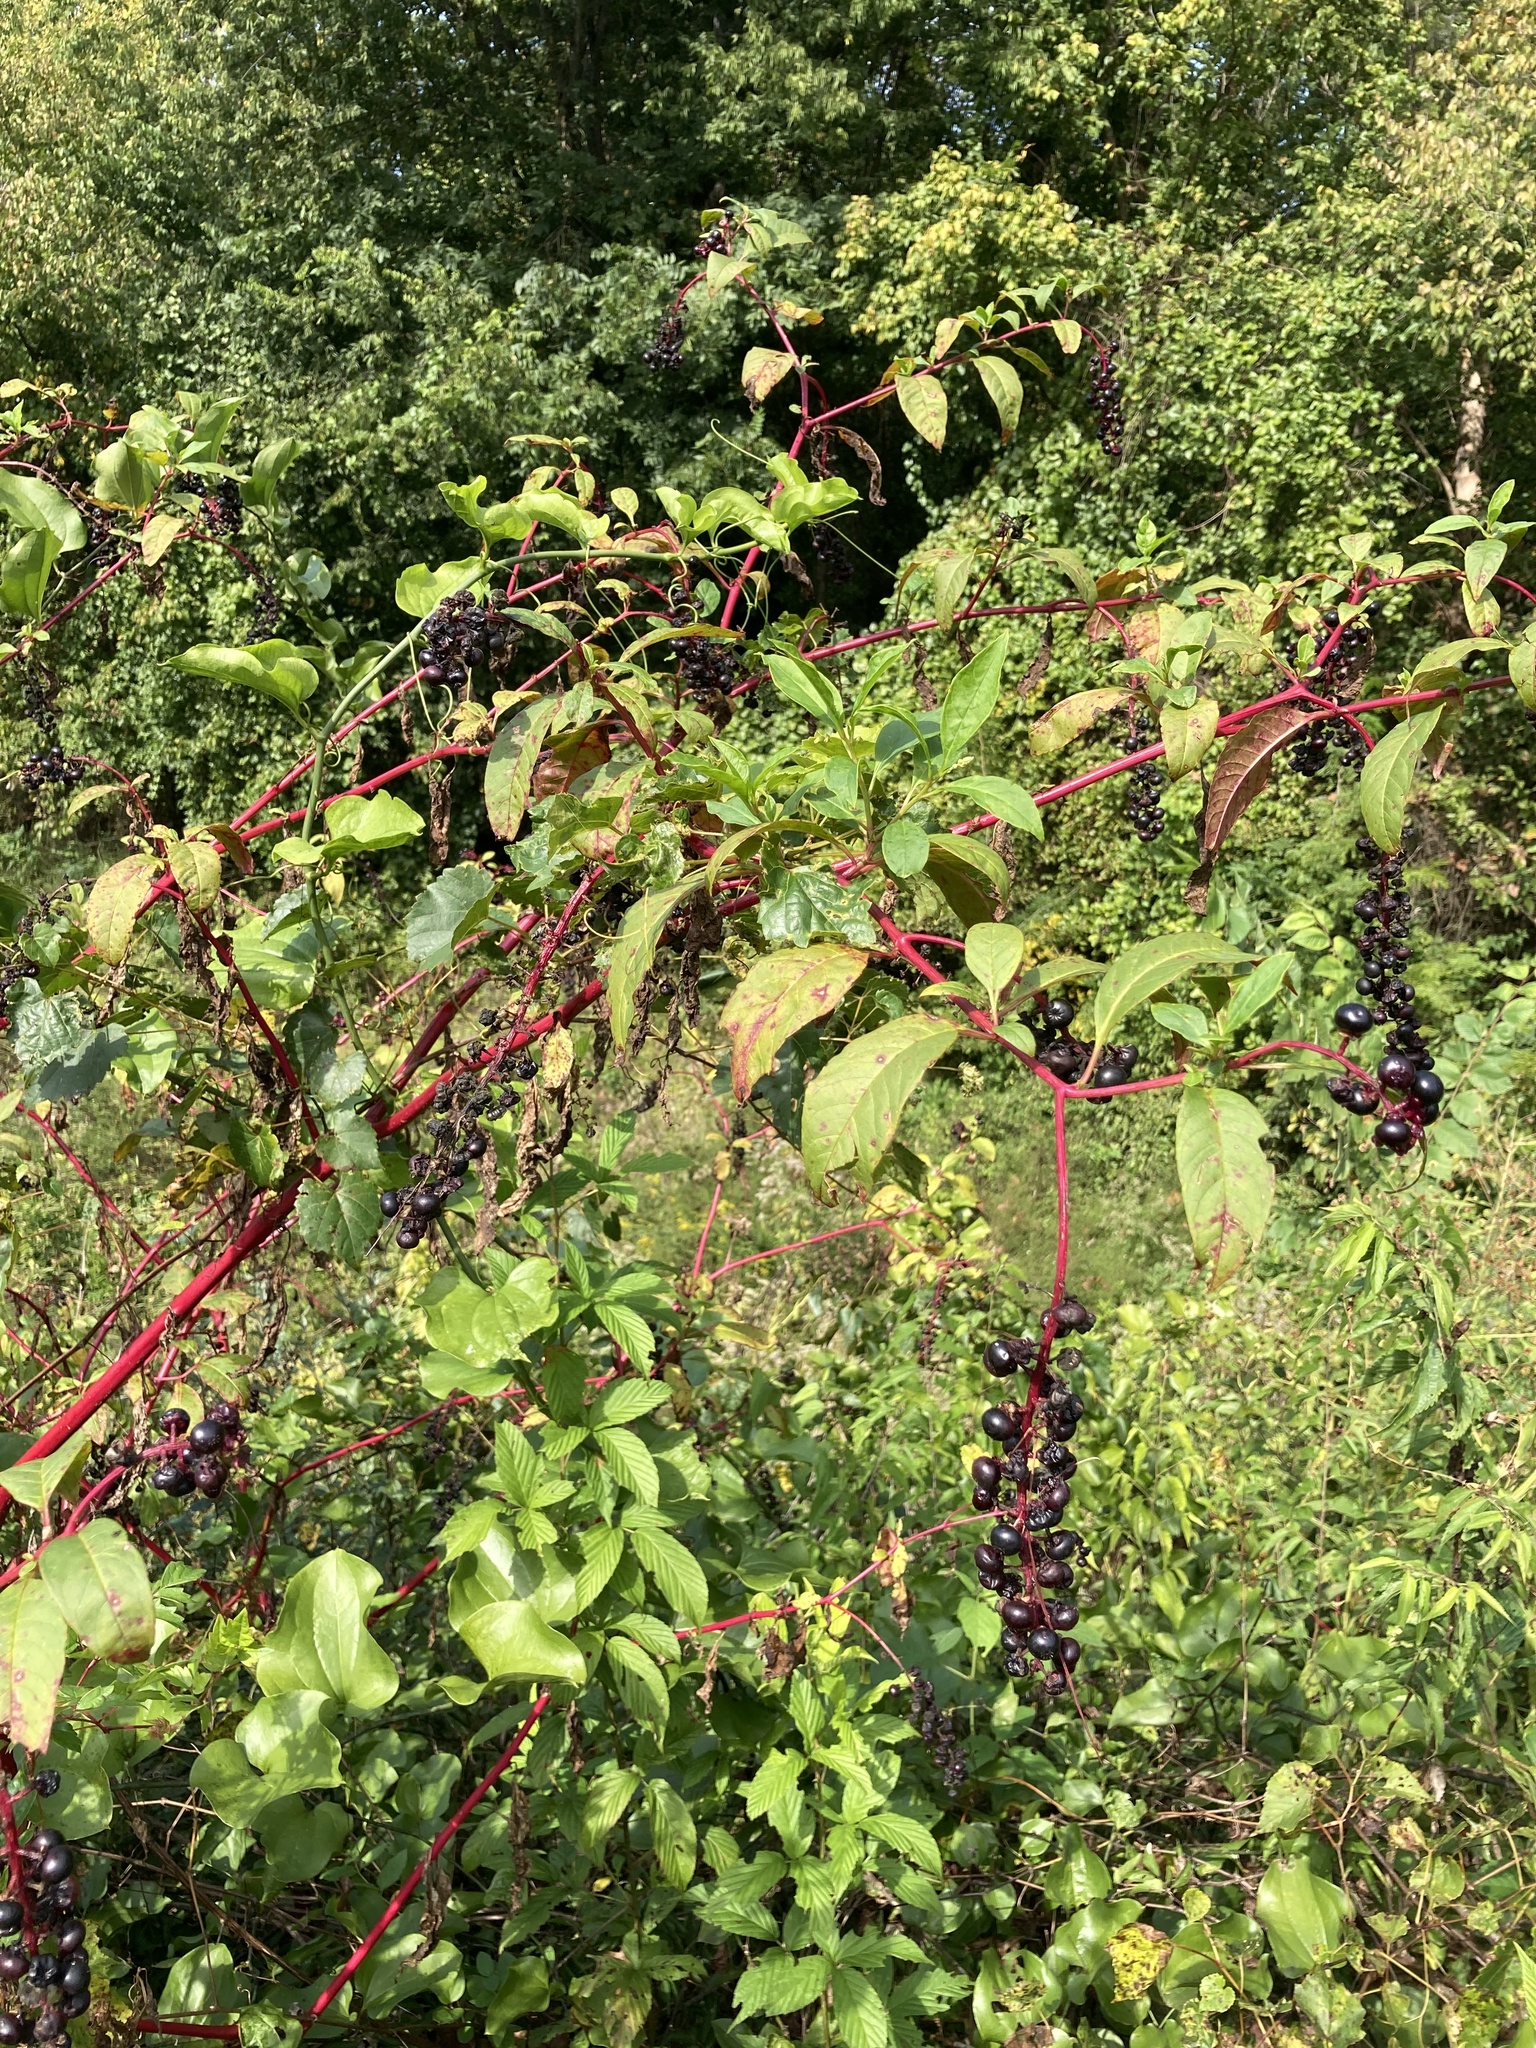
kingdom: Plantae
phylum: Tracheophyta
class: Magnoliopsida
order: Caryophyllales
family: Phytolaccaceae
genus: Phytolacca
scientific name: Phytolacca americana
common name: American pokeweed
